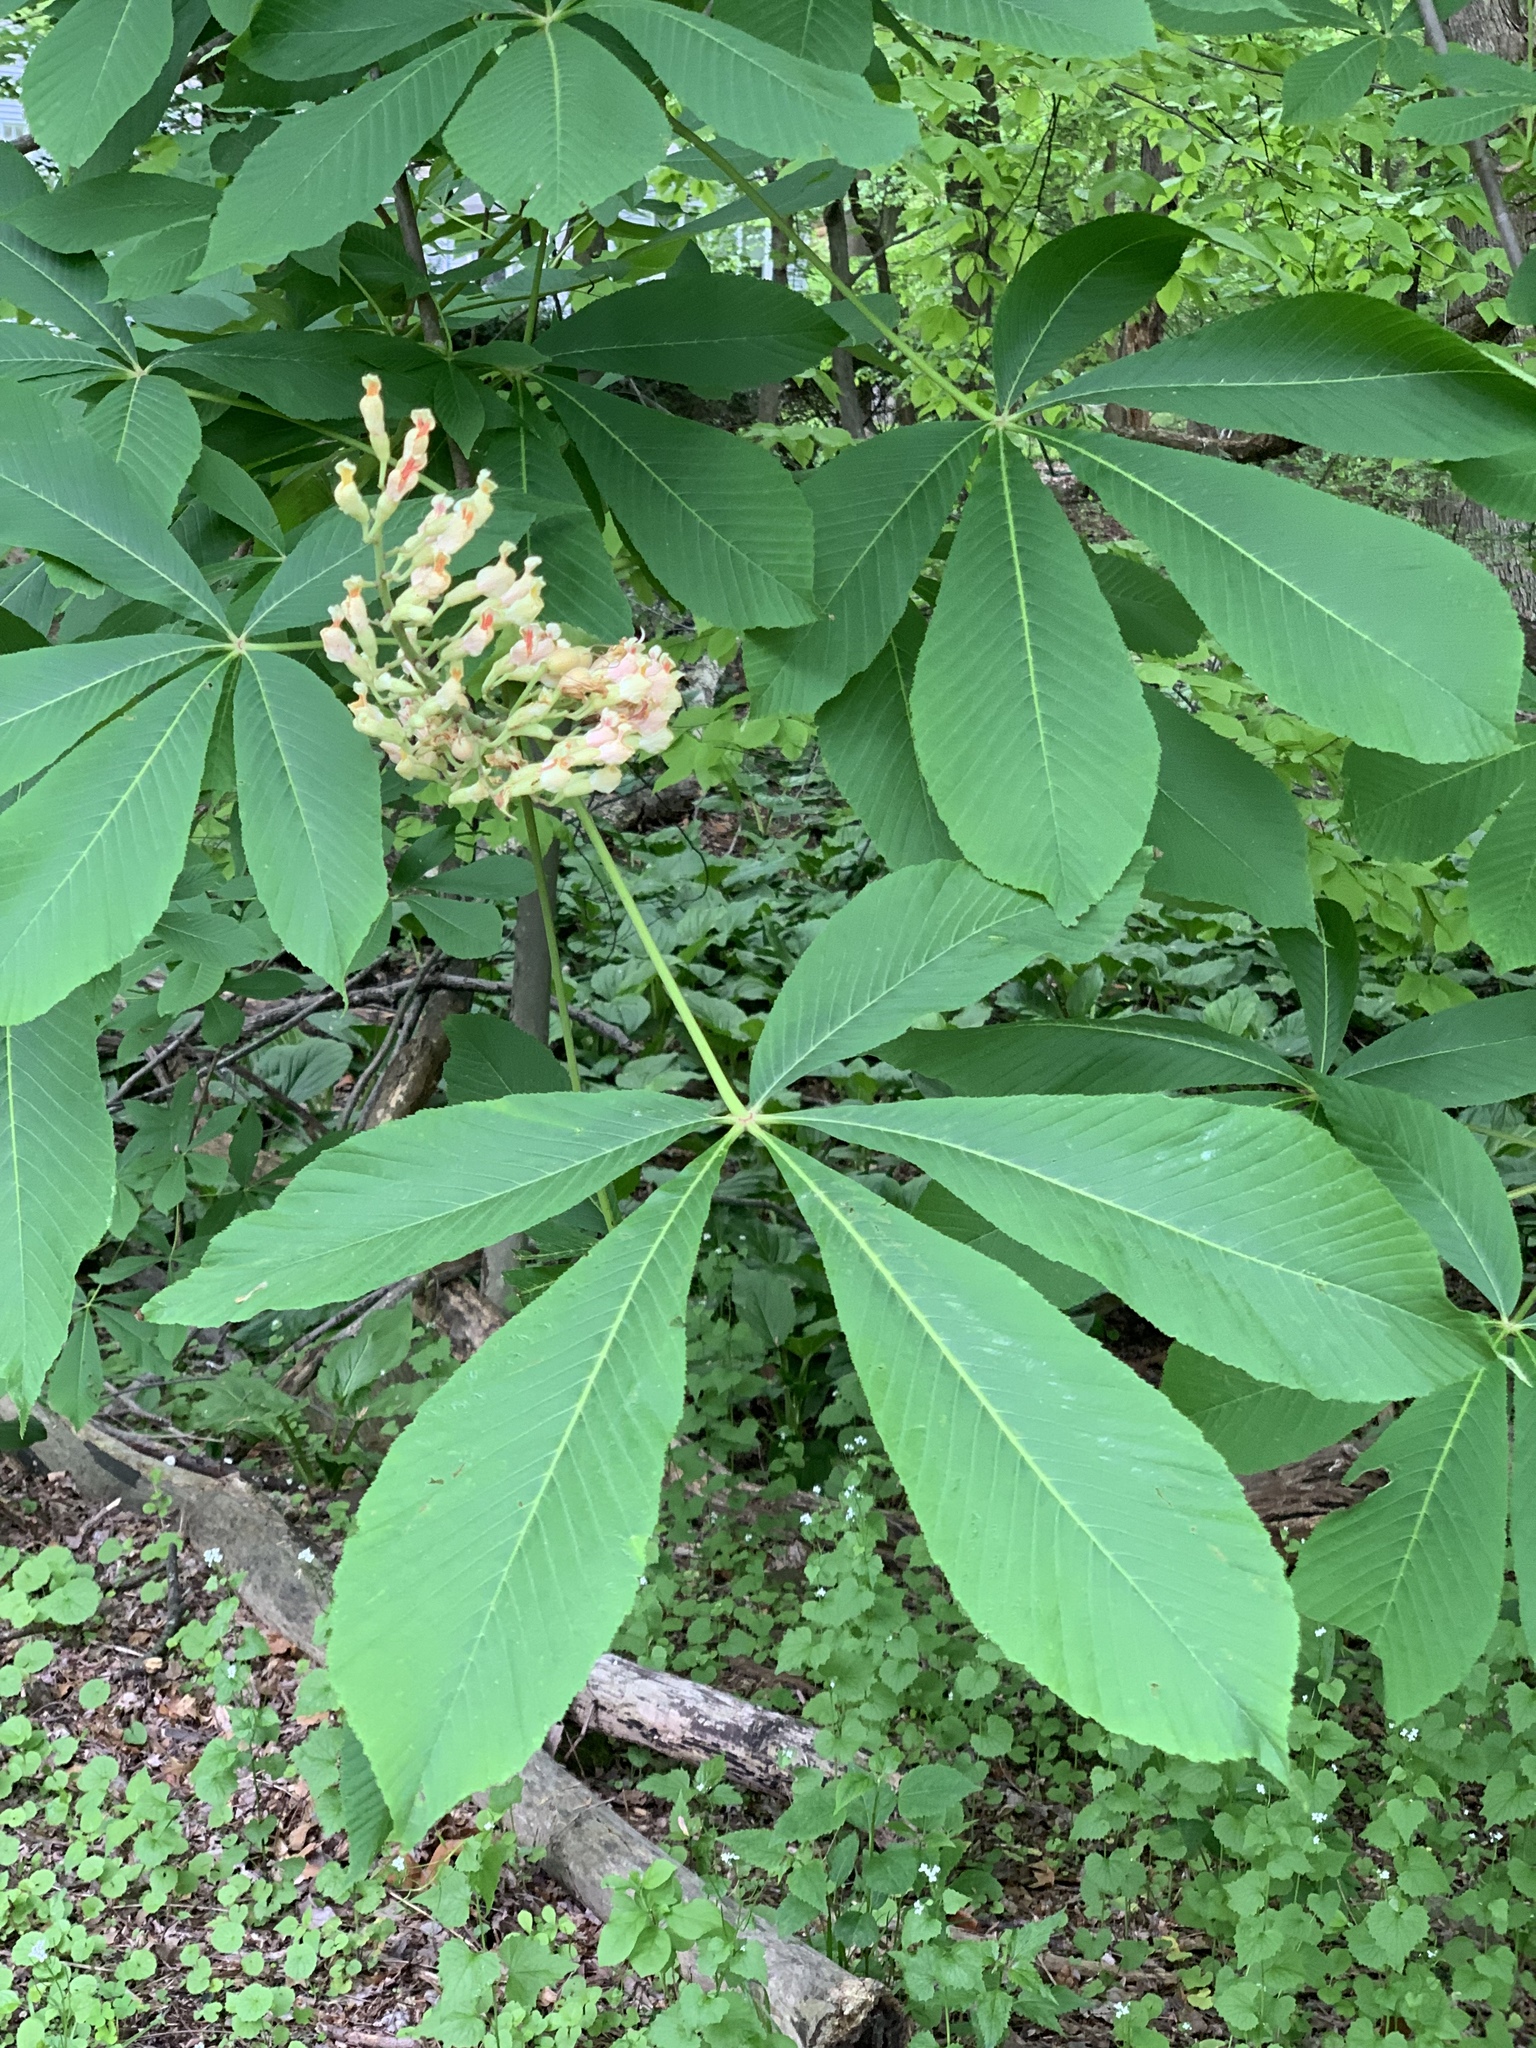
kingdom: Plantae
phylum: Tracheophyta
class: Magnoliopsida
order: Sapindales
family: Sapindaceae
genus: Aesculus
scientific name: Aesculus flava
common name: Yellow buckeye
